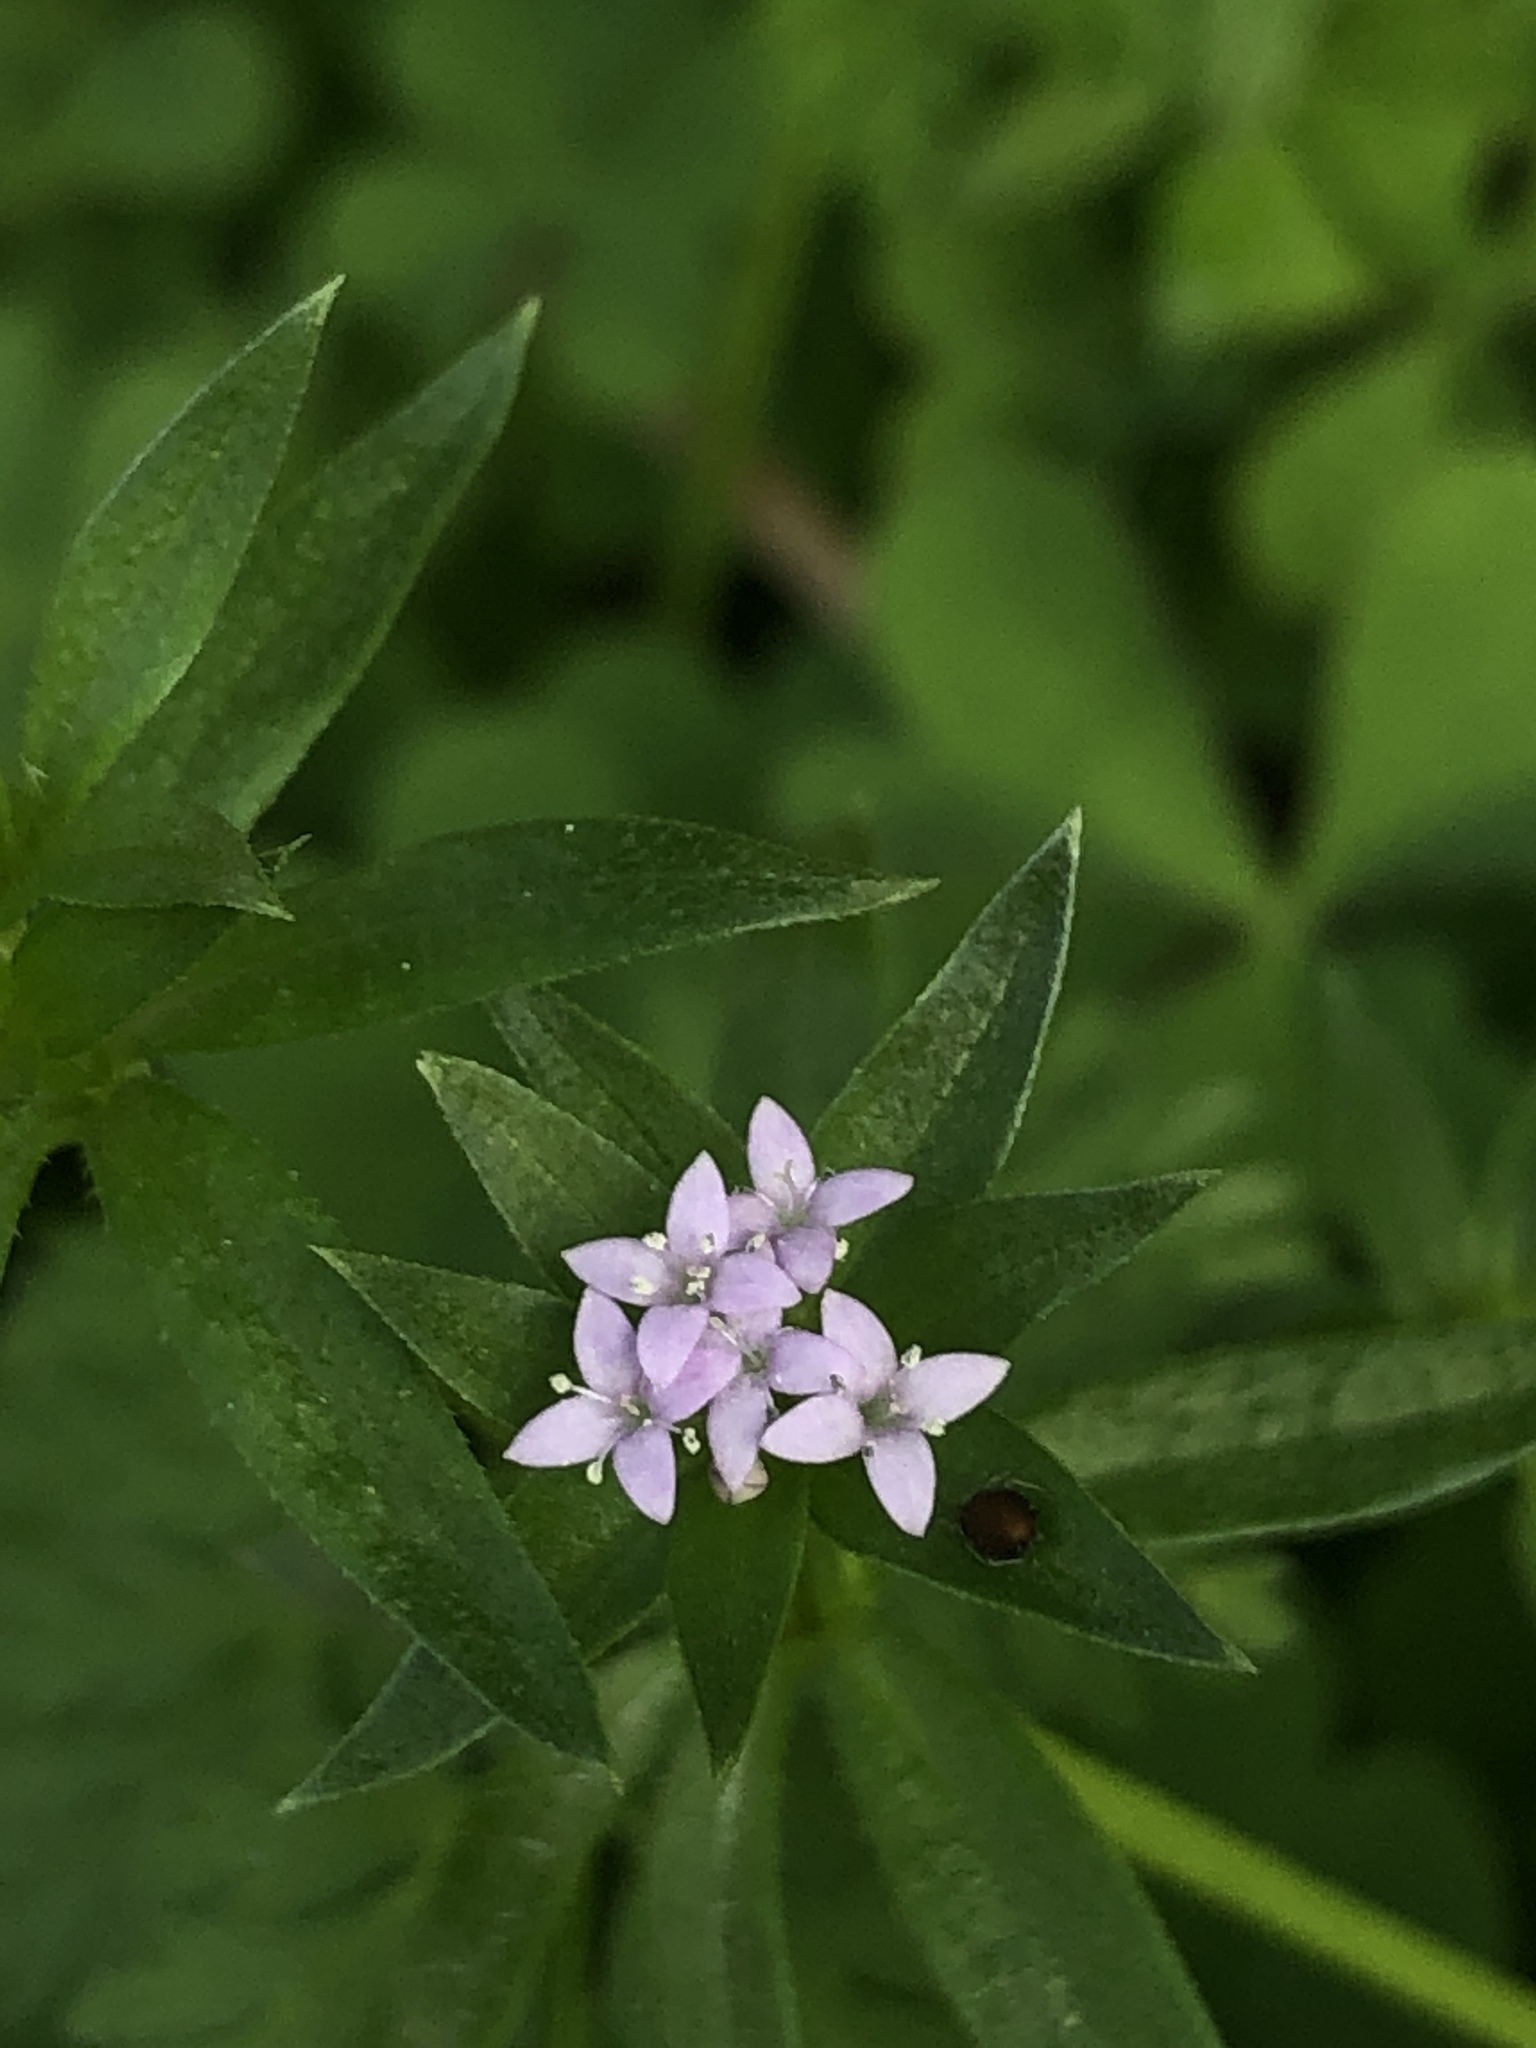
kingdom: Plantae
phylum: Tracheophyta
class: Magnoliopsida
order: Gentianales
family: Rubiaceae
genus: Sherardia
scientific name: Sherardia arvensis
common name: Field madder
